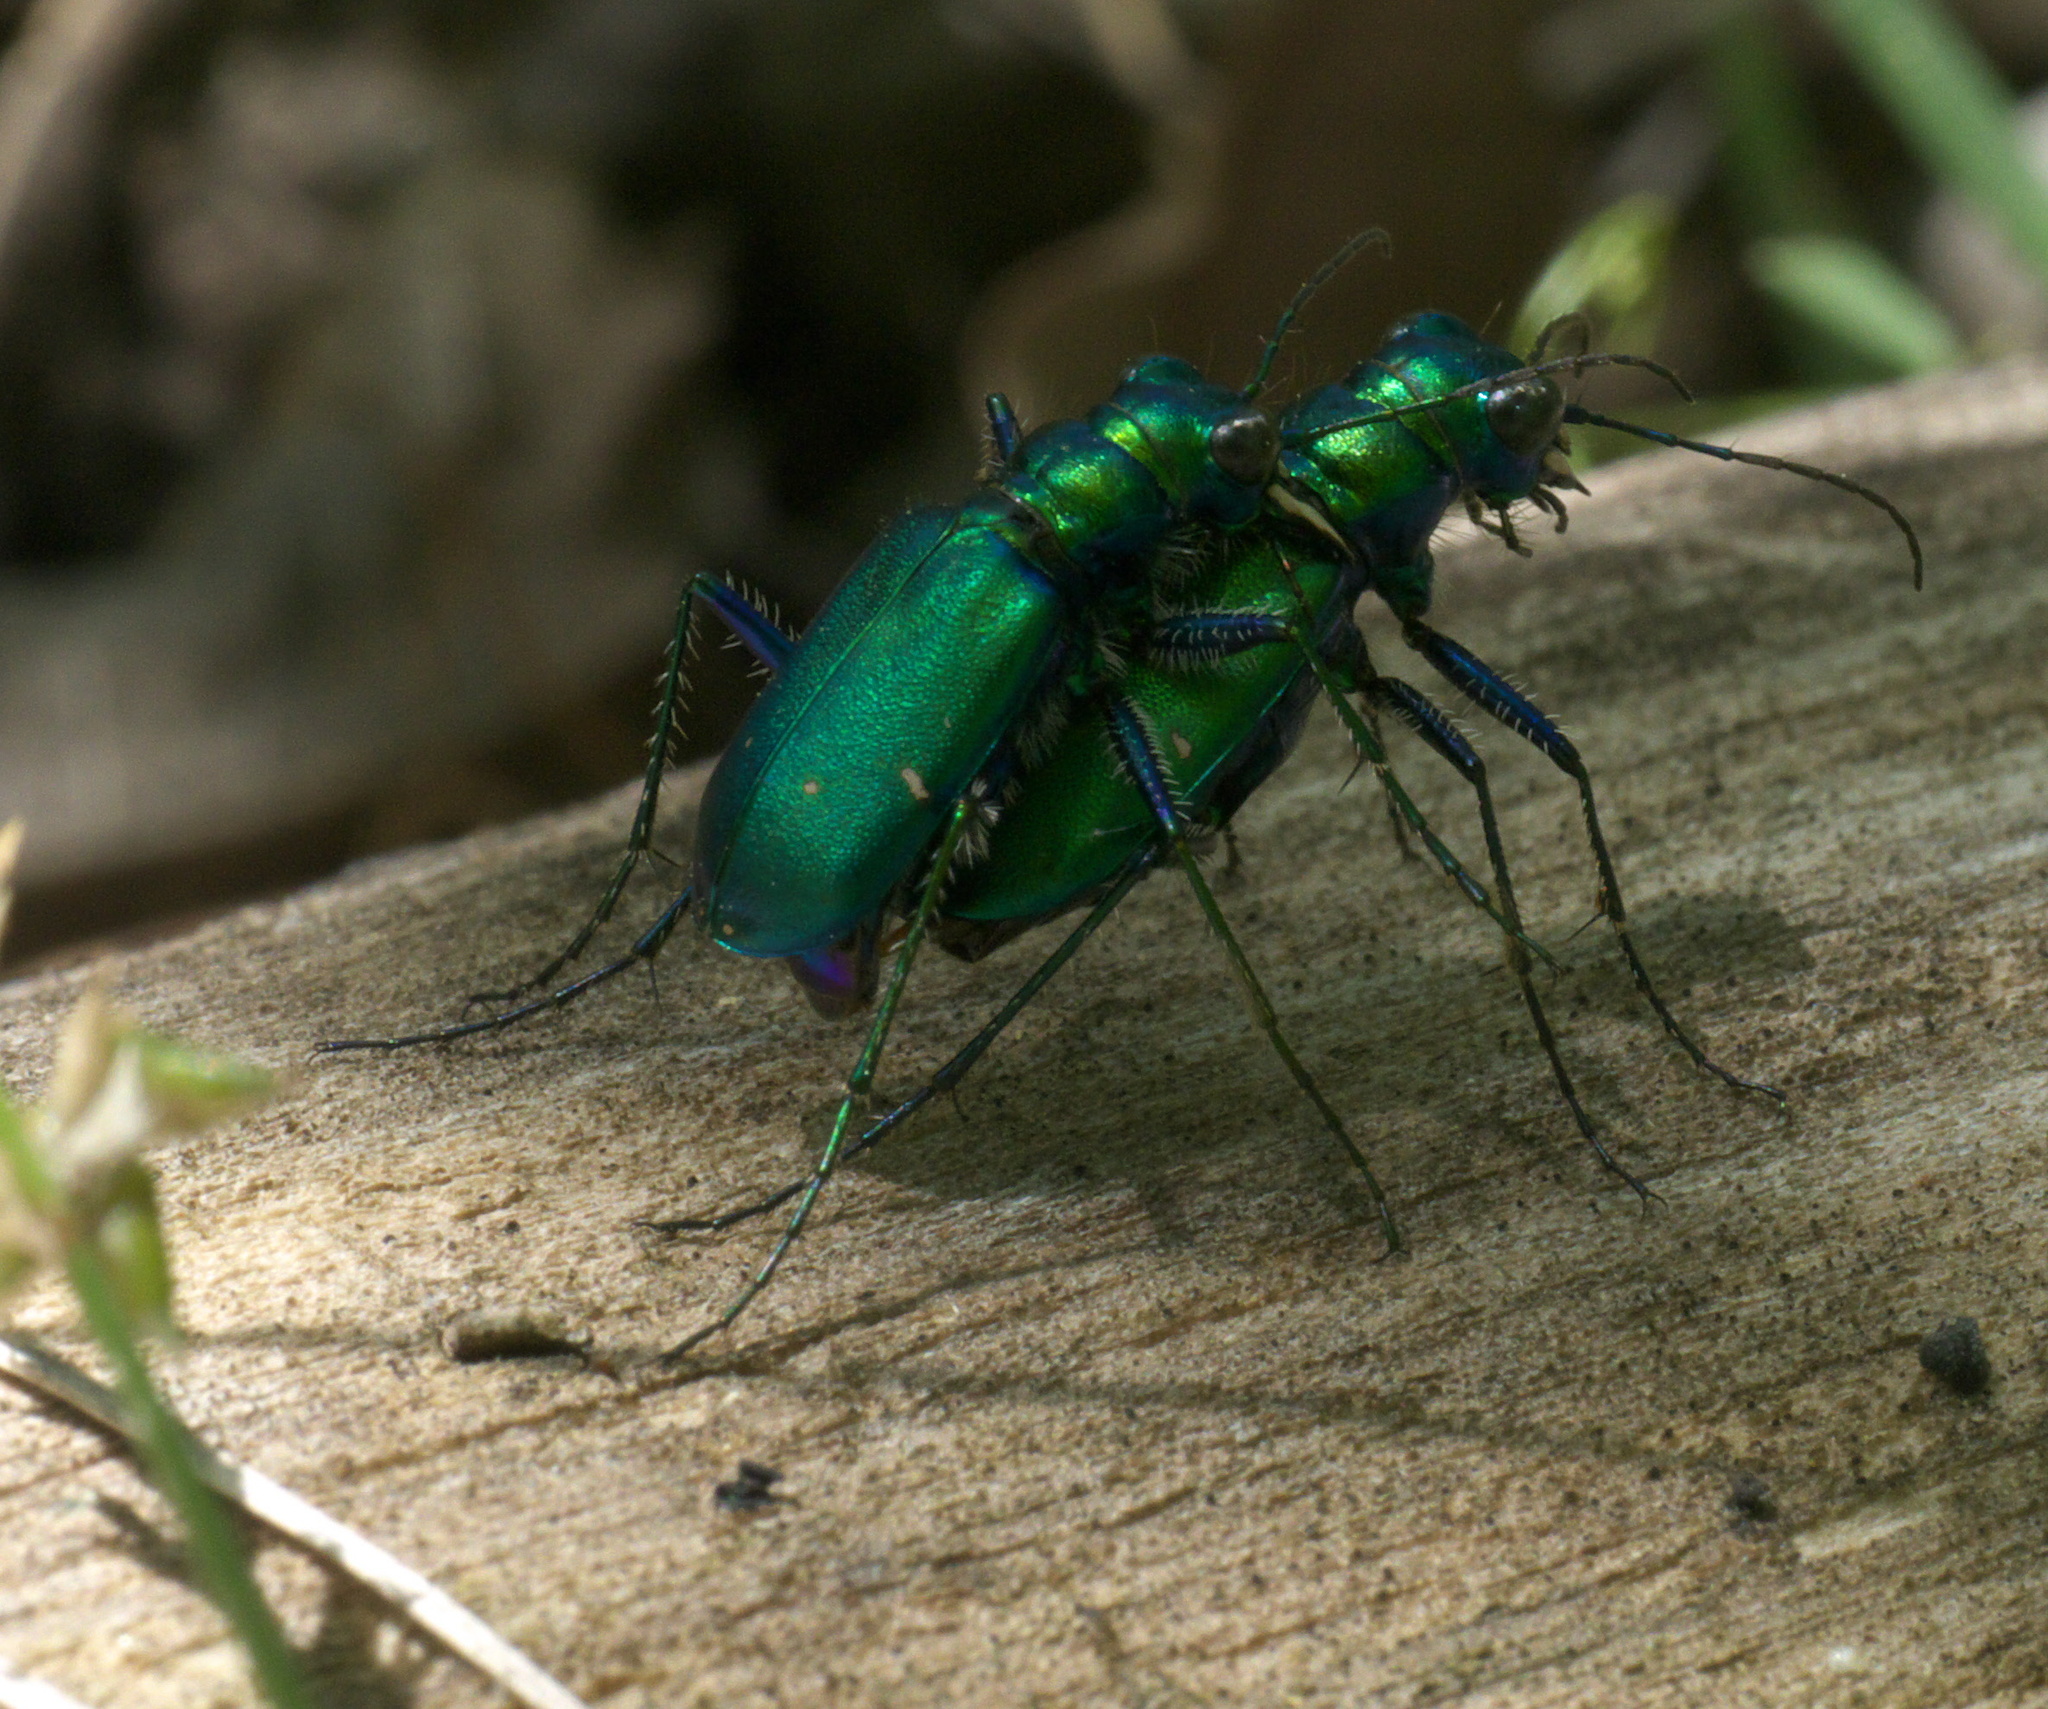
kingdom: Animalia
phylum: Arthropoda
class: Insecta
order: Coleoptera
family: Carabidae
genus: Cicindela
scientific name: Cicindela sexguttata
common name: Six-spotted tiger beetle
